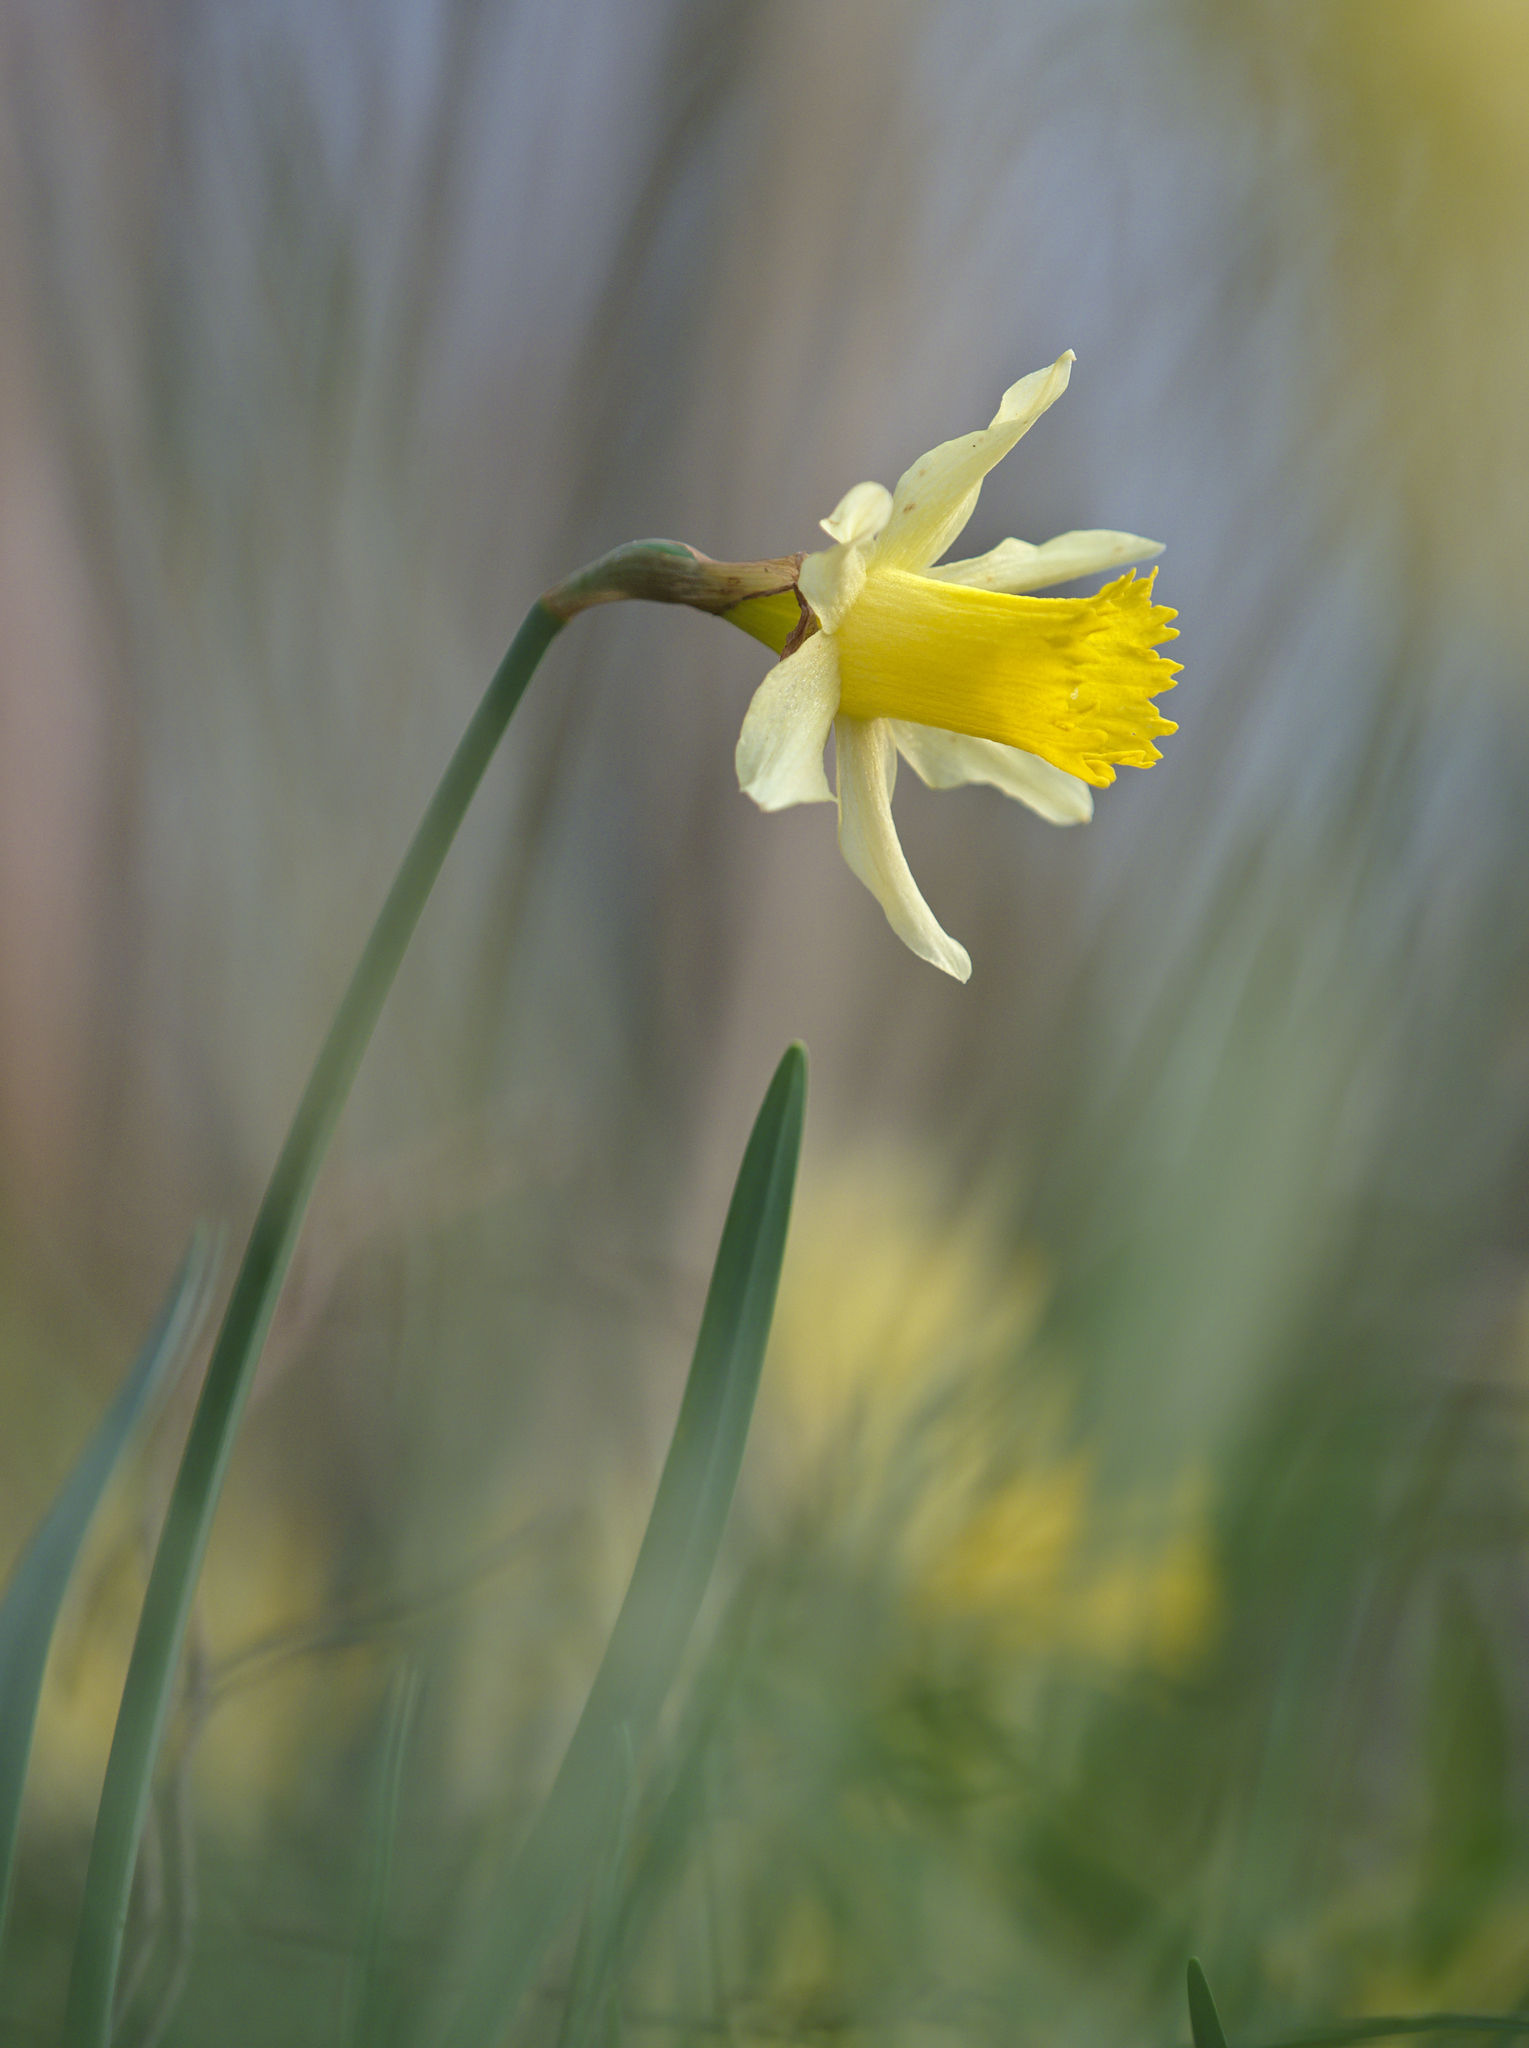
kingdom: Plantae
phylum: Tracheophyta
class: Liliopsida
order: Asparagales
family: Amaryllidaceae
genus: Narcissus
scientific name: Narcissus pseudonarcissus
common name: Daffodil
